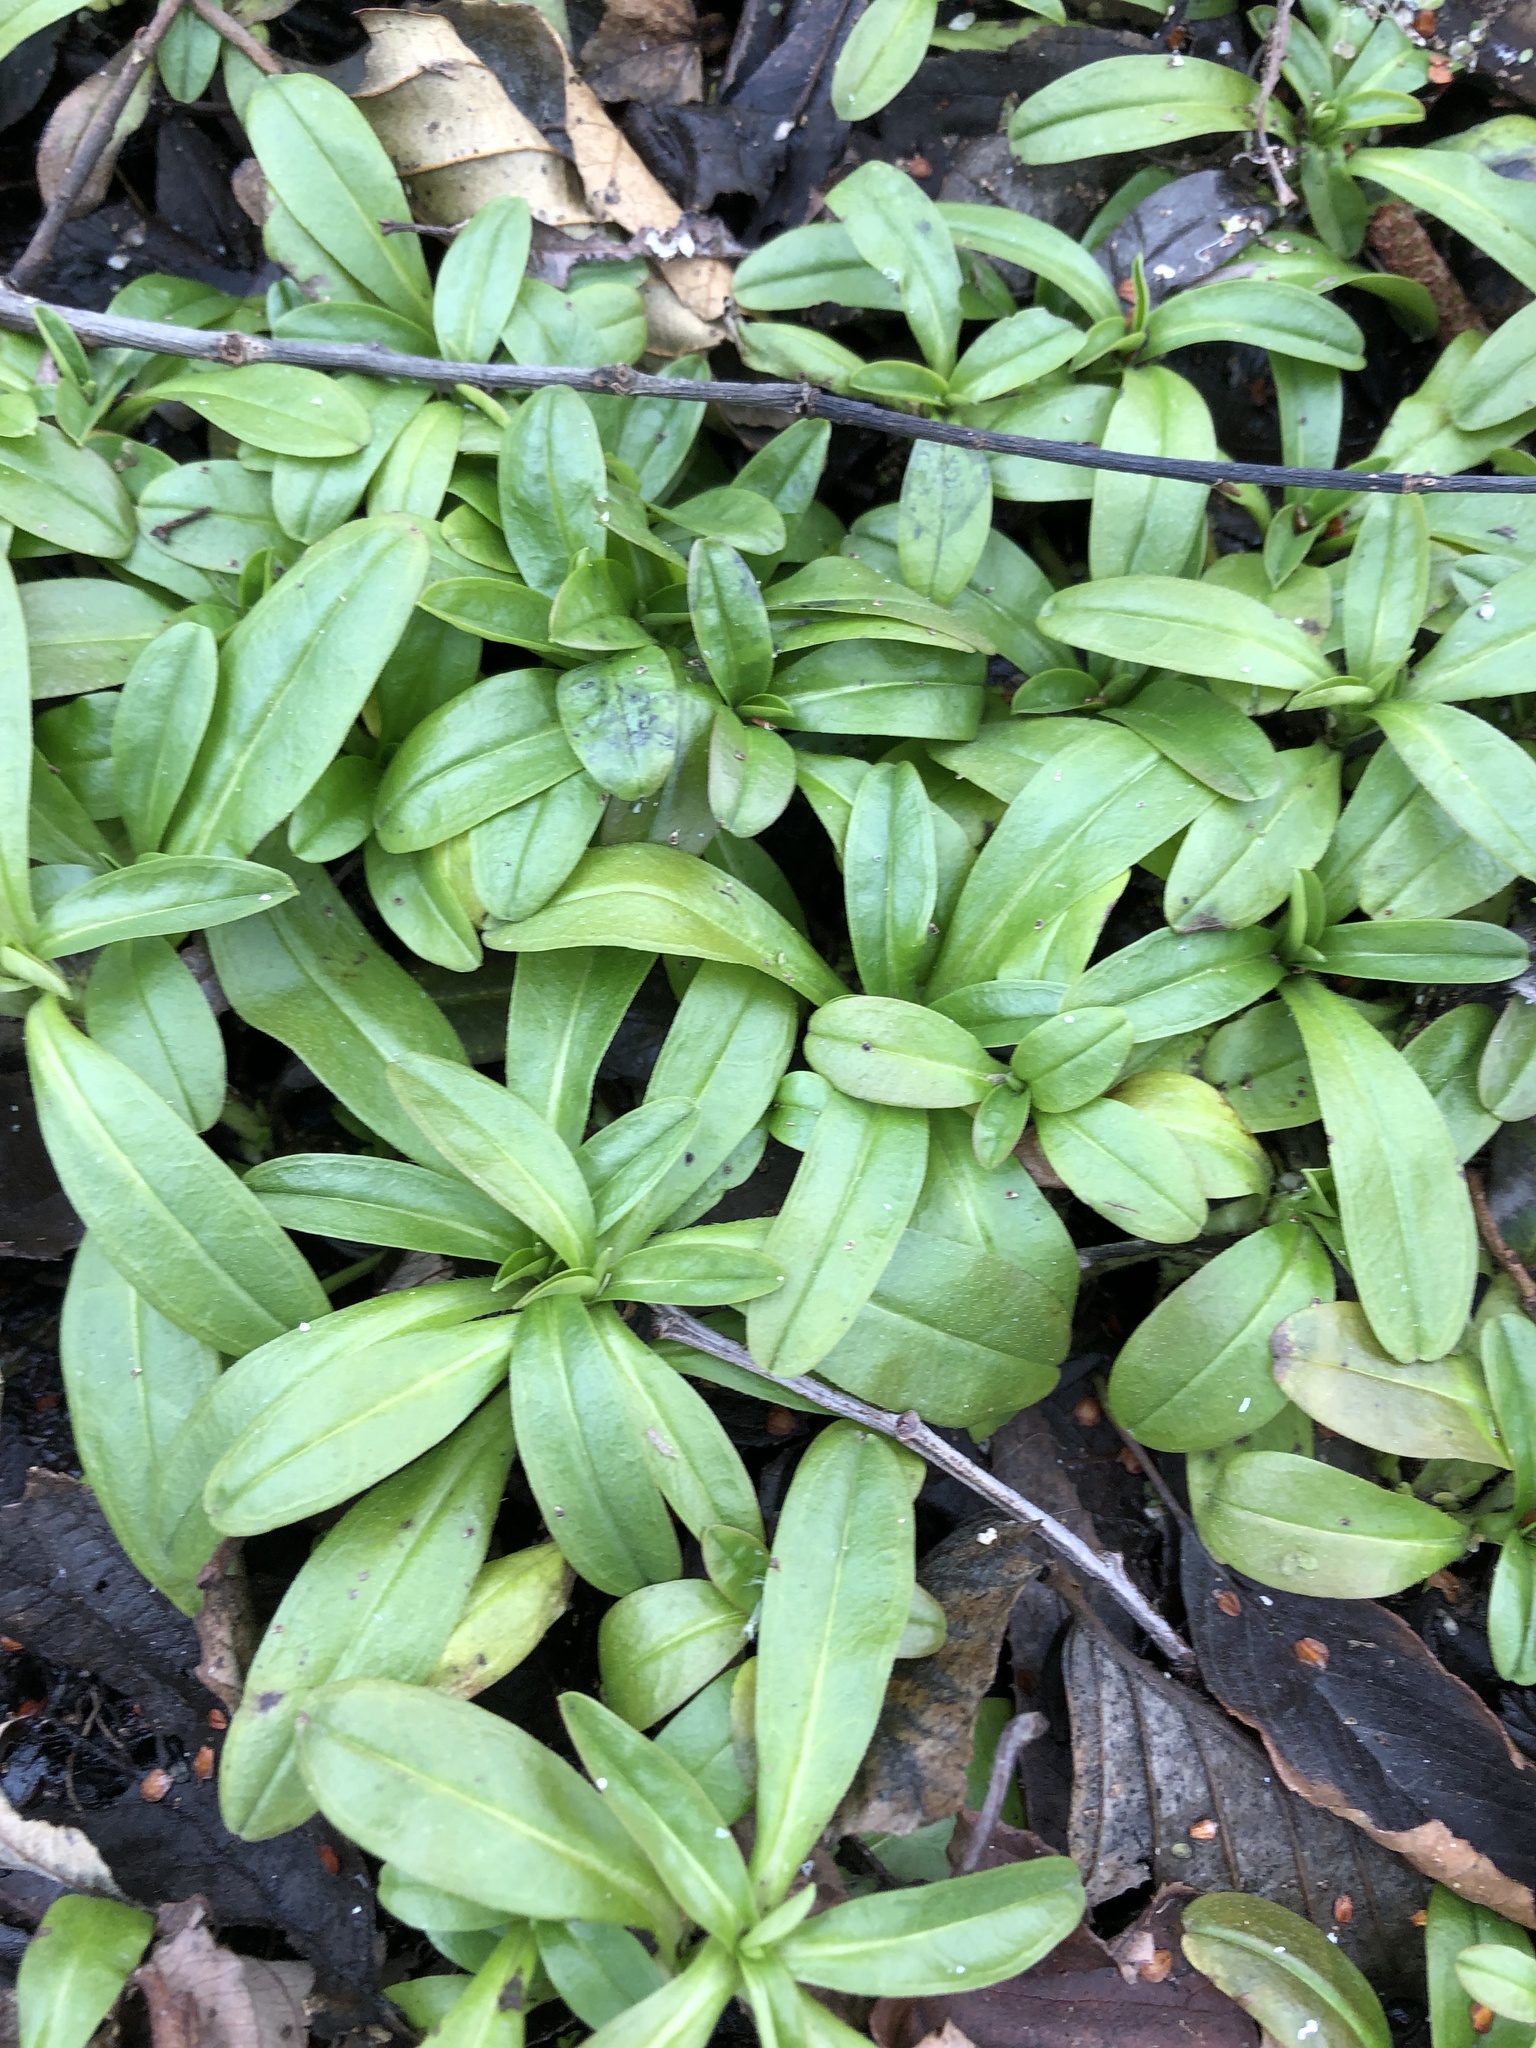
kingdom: Plantae
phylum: Tracheophyta
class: Magnoliopsida
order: Boraginales
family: Boraginaceae
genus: Myosotis
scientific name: Myosotis scorpioides
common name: Water forget-me-not
